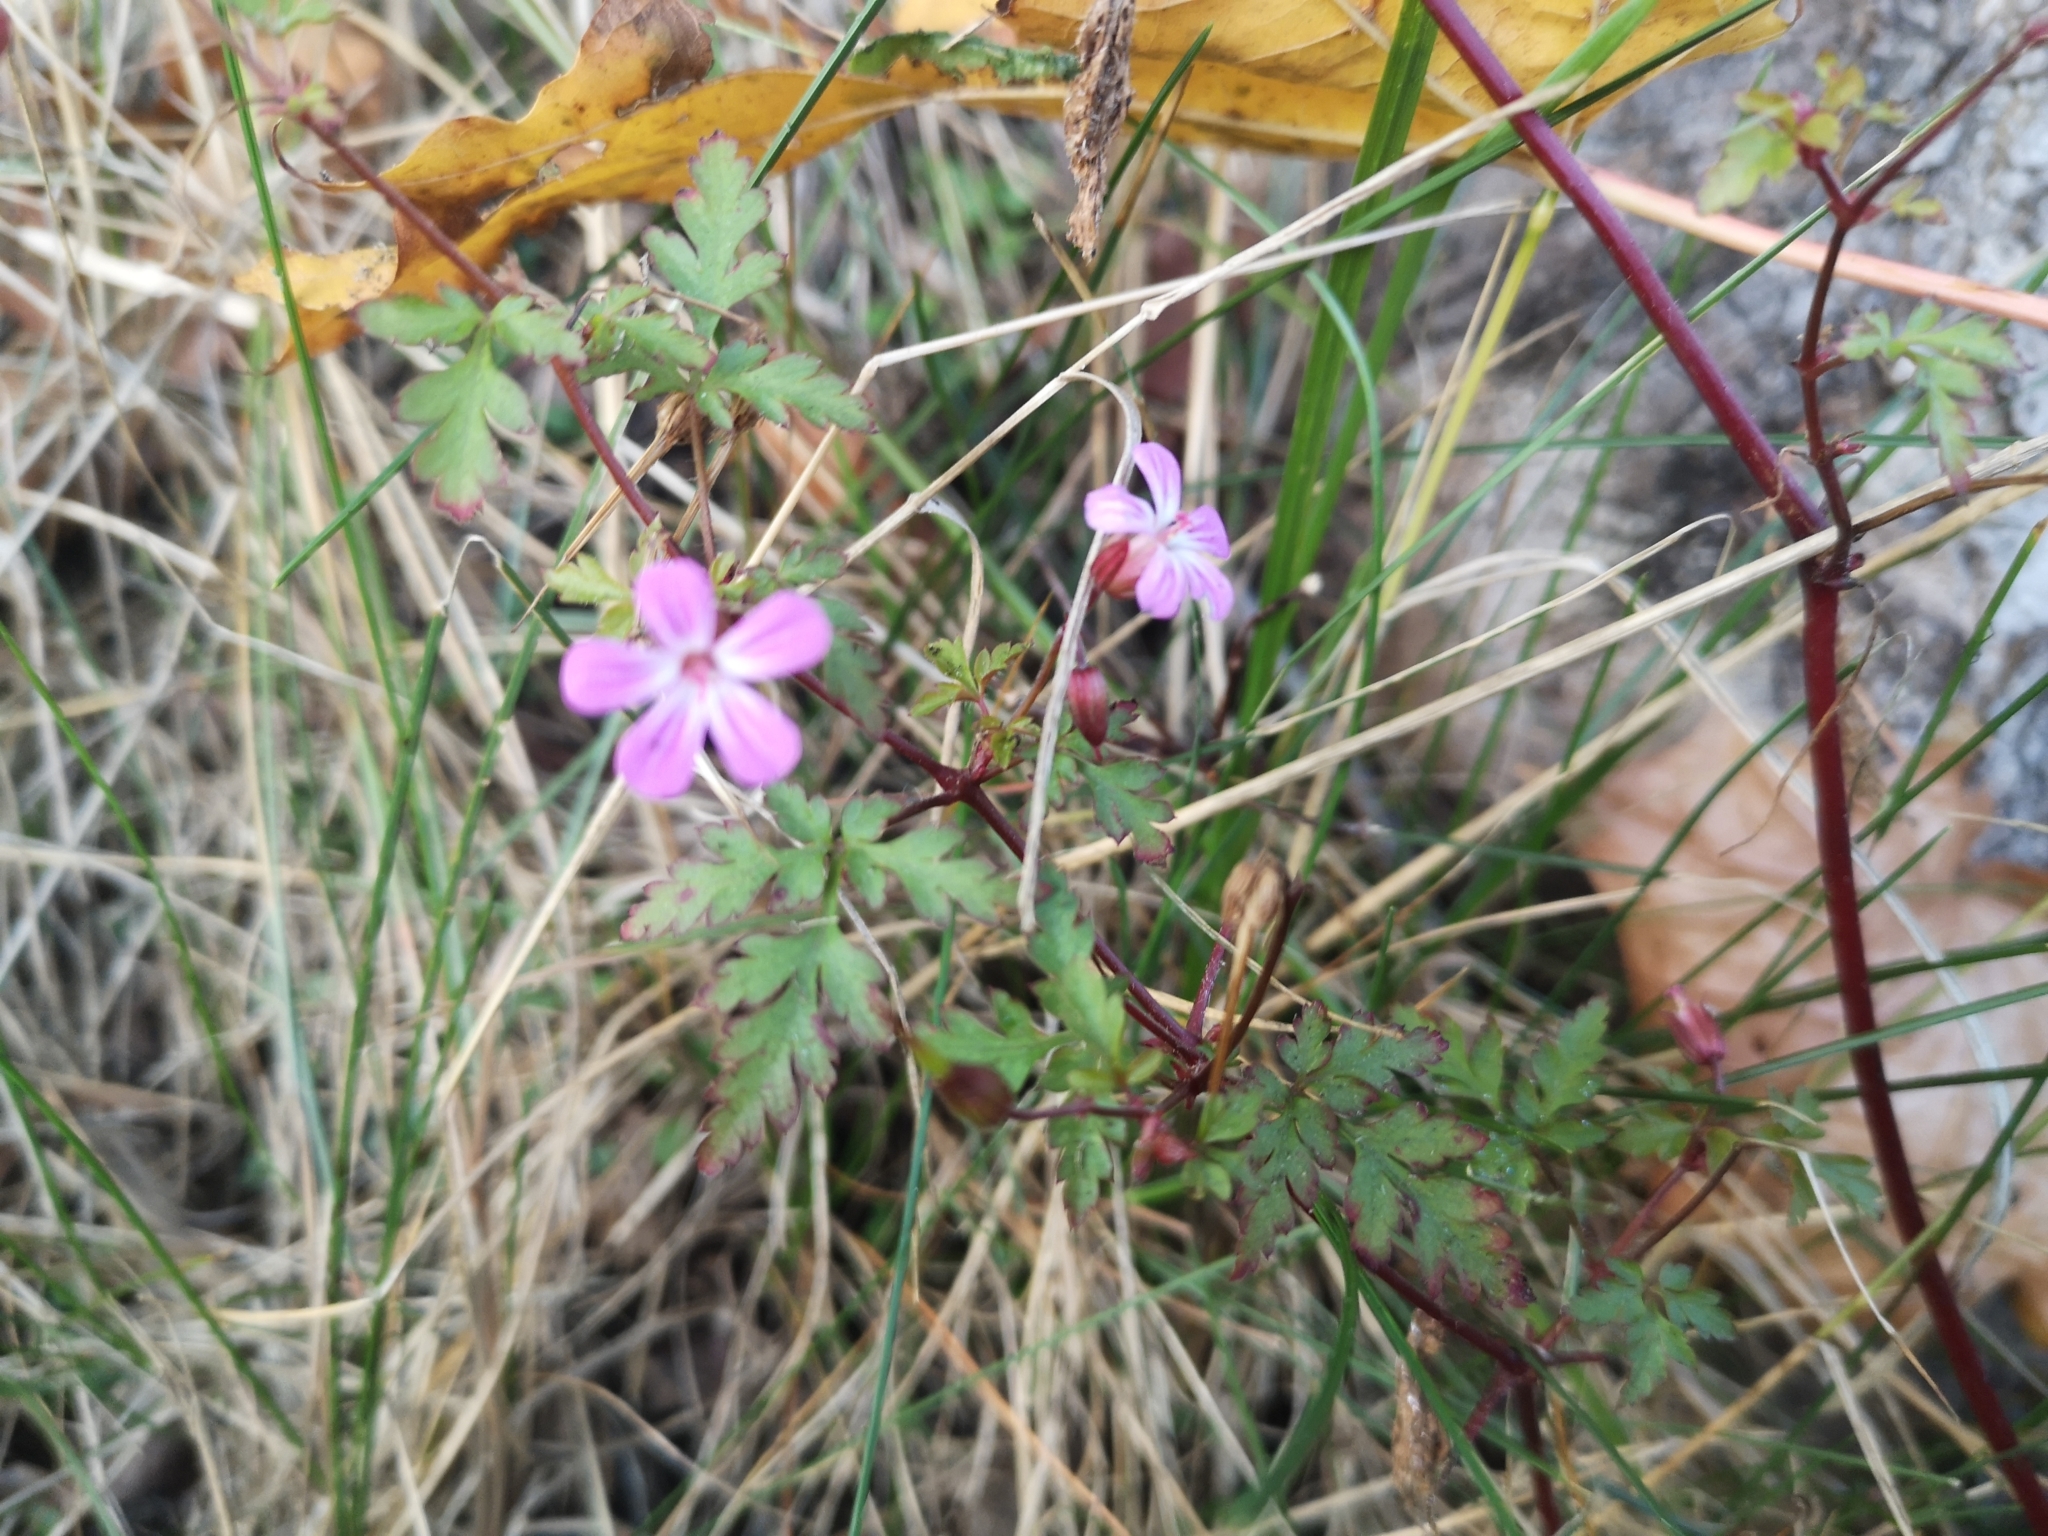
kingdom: Plantae
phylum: Tracheophyta
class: Magnoliopsida
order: Geraniales
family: Geraniaceae
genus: Geranium
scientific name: Geranium robertianum
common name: Herb-robert
